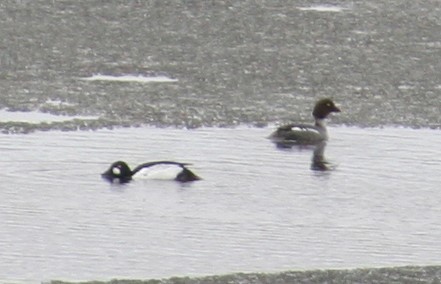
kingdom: Animalia
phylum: Chordata
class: Aves
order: Anseriformes
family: Anatidae
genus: Bucephala
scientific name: Bucephala clangula
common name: Common goldeneye
